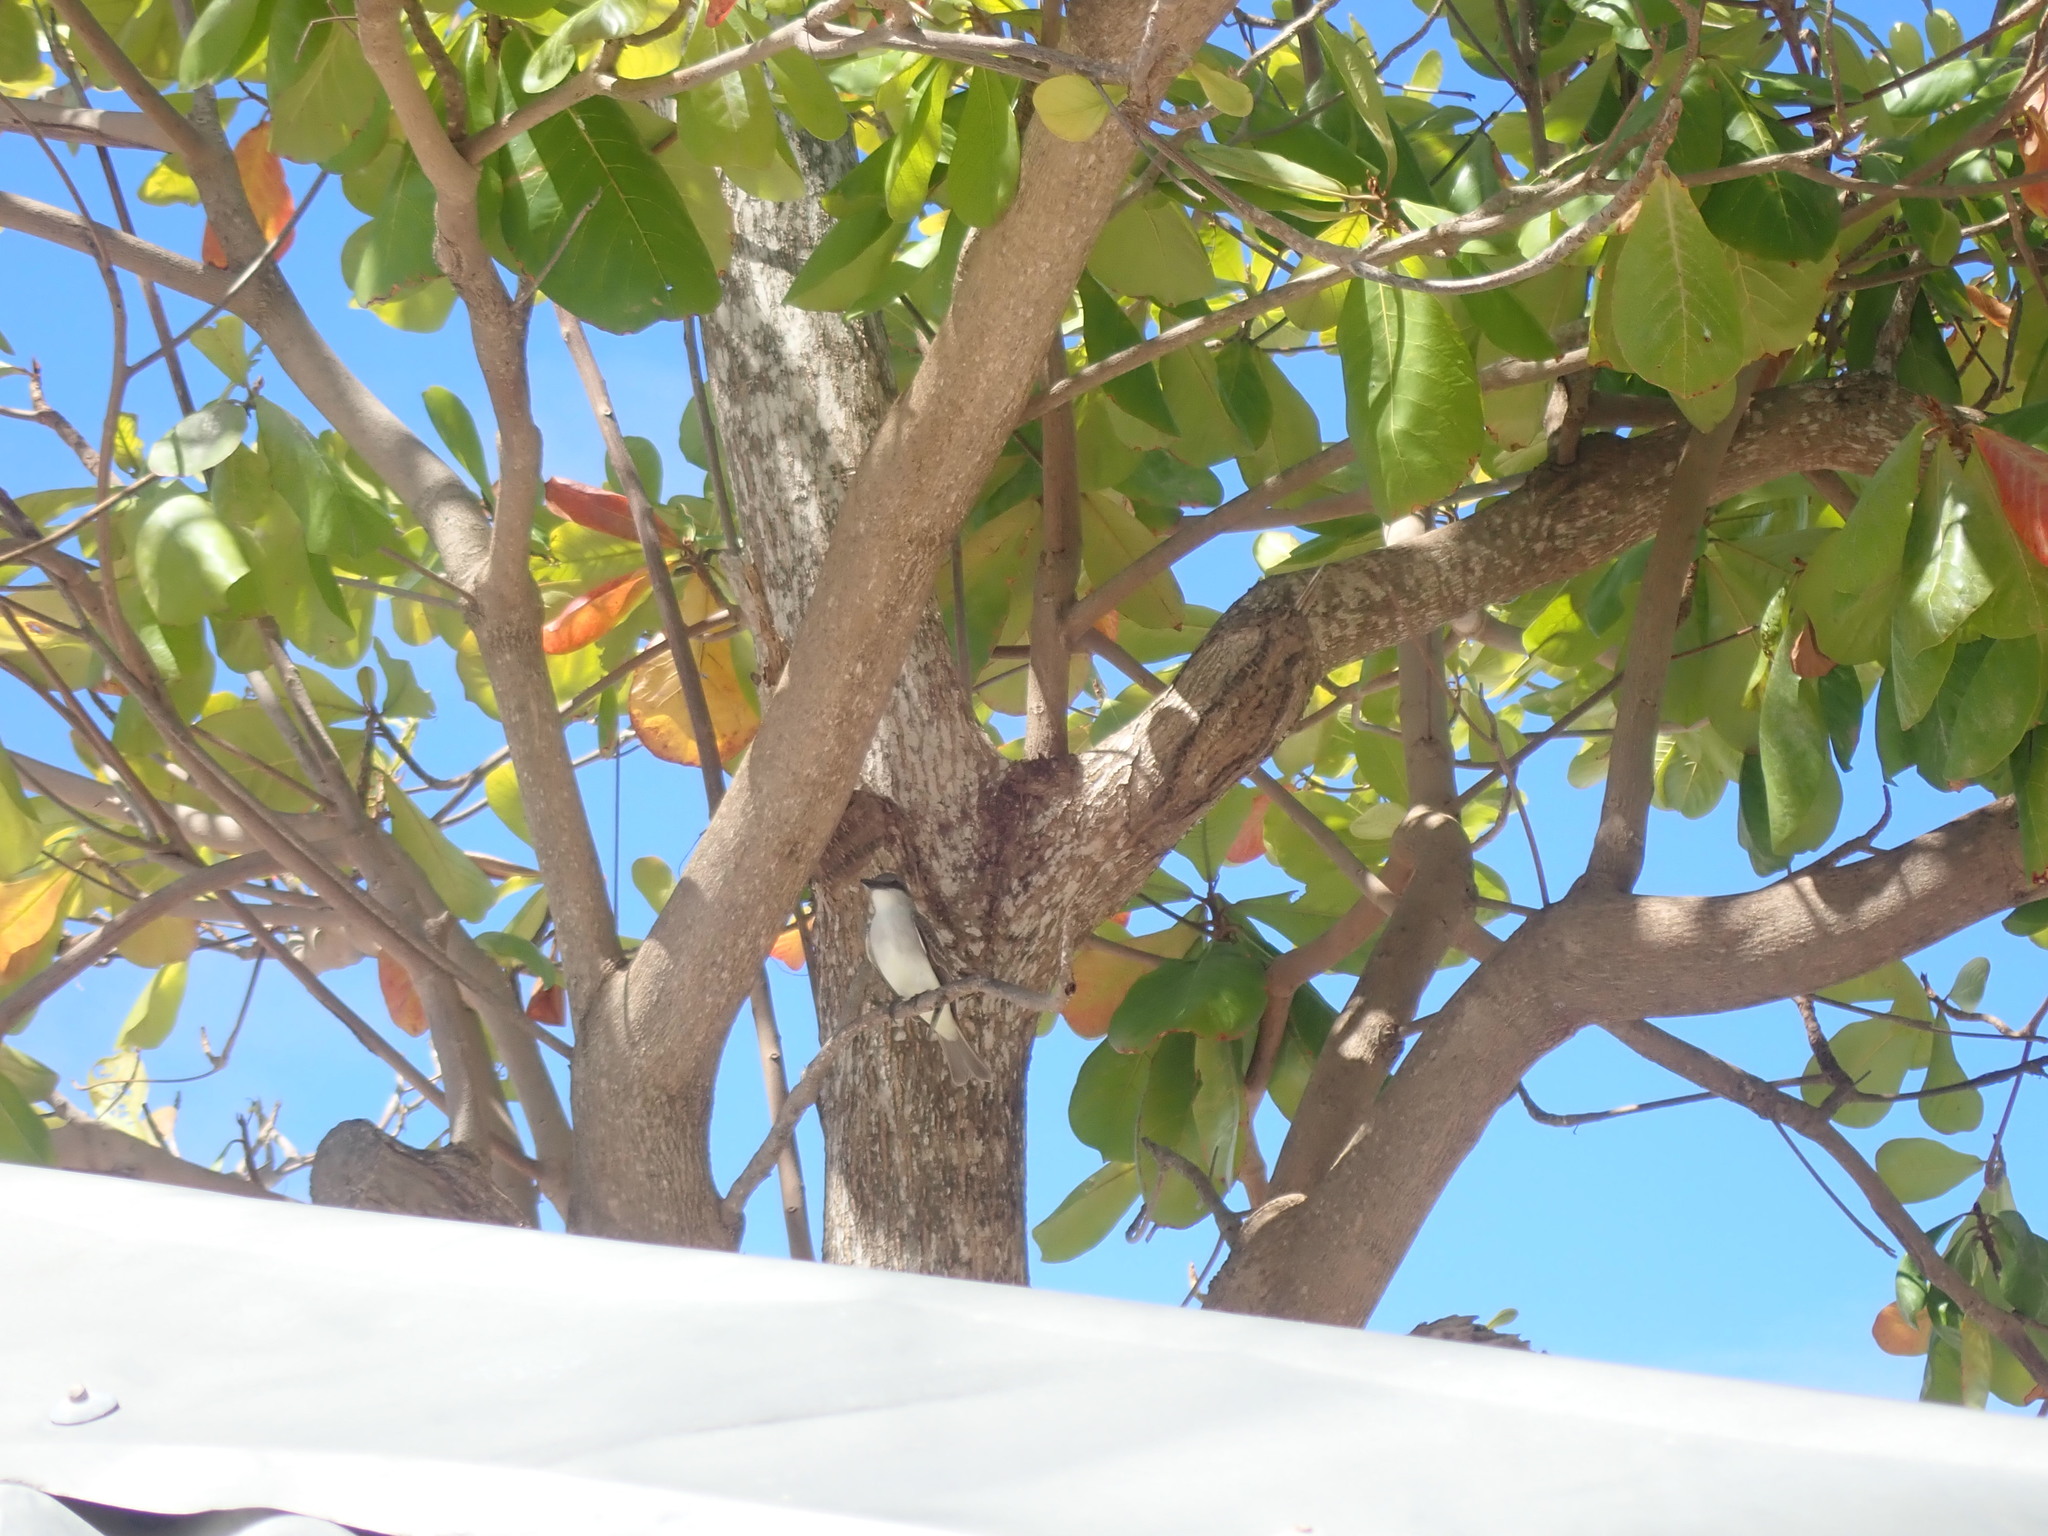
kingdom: Animalia
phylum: Chordata
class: Aves
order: Passeriformes
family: Tyrannidae
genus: Tyrannus
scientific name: Tyrannus dominicensis
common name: Gray kingbird
